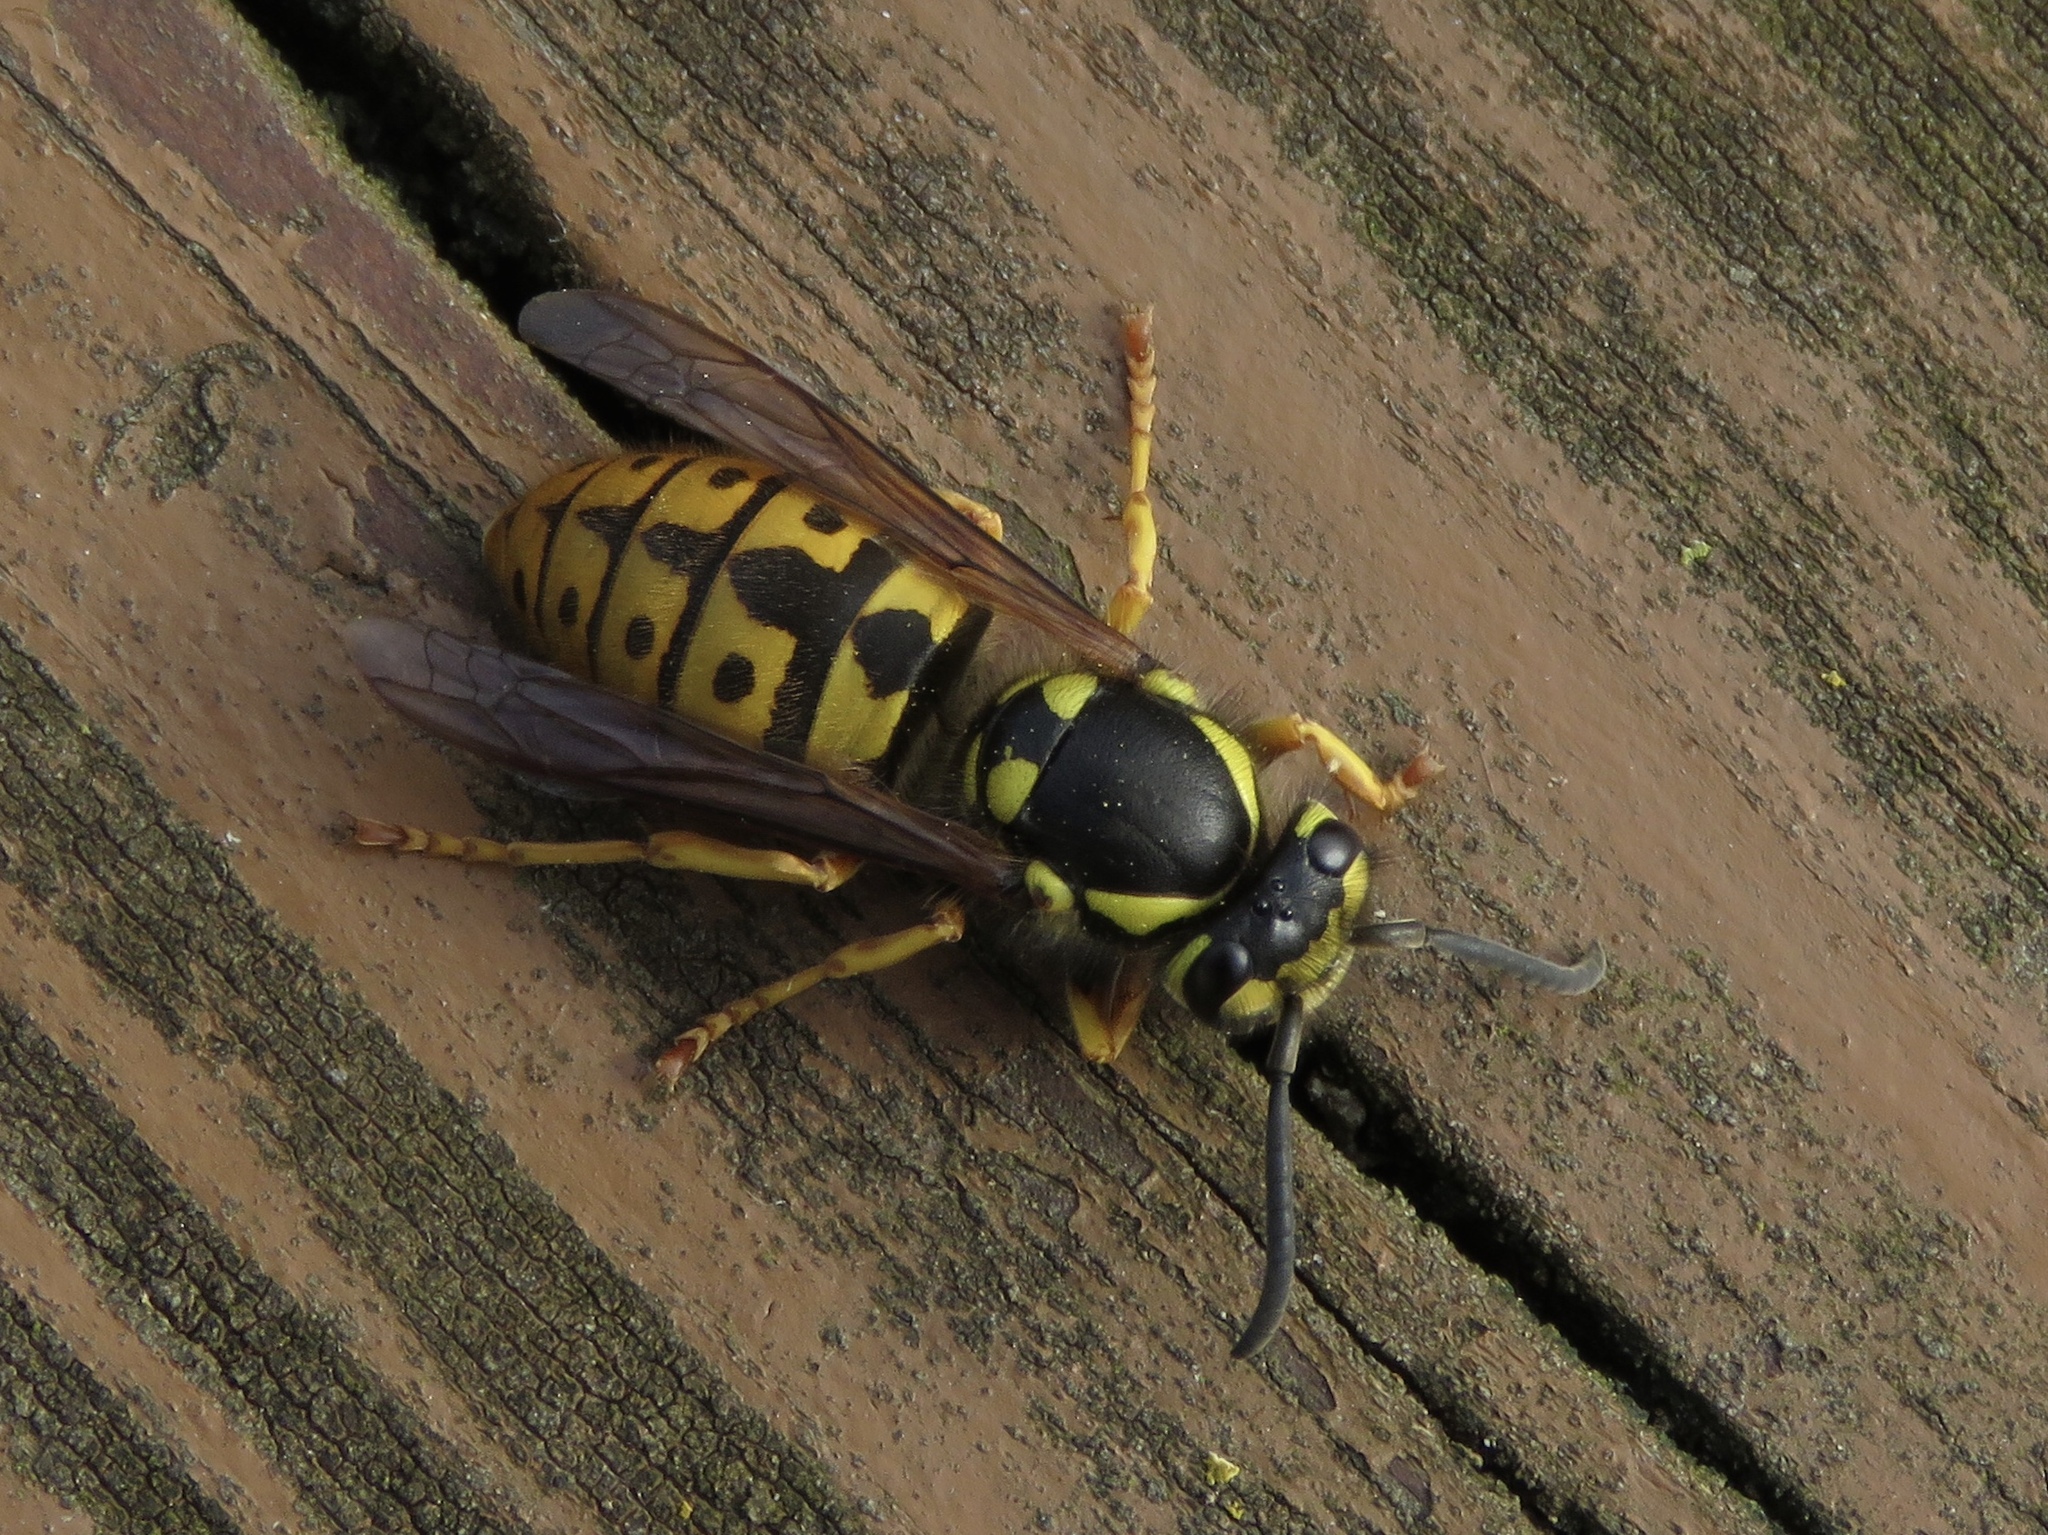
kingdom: Animalia
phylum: Arthropoda
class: Insecta
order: Hymenoptera
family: Vespidae
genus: Vespula
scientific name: Vespula germanica
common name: German wasp
